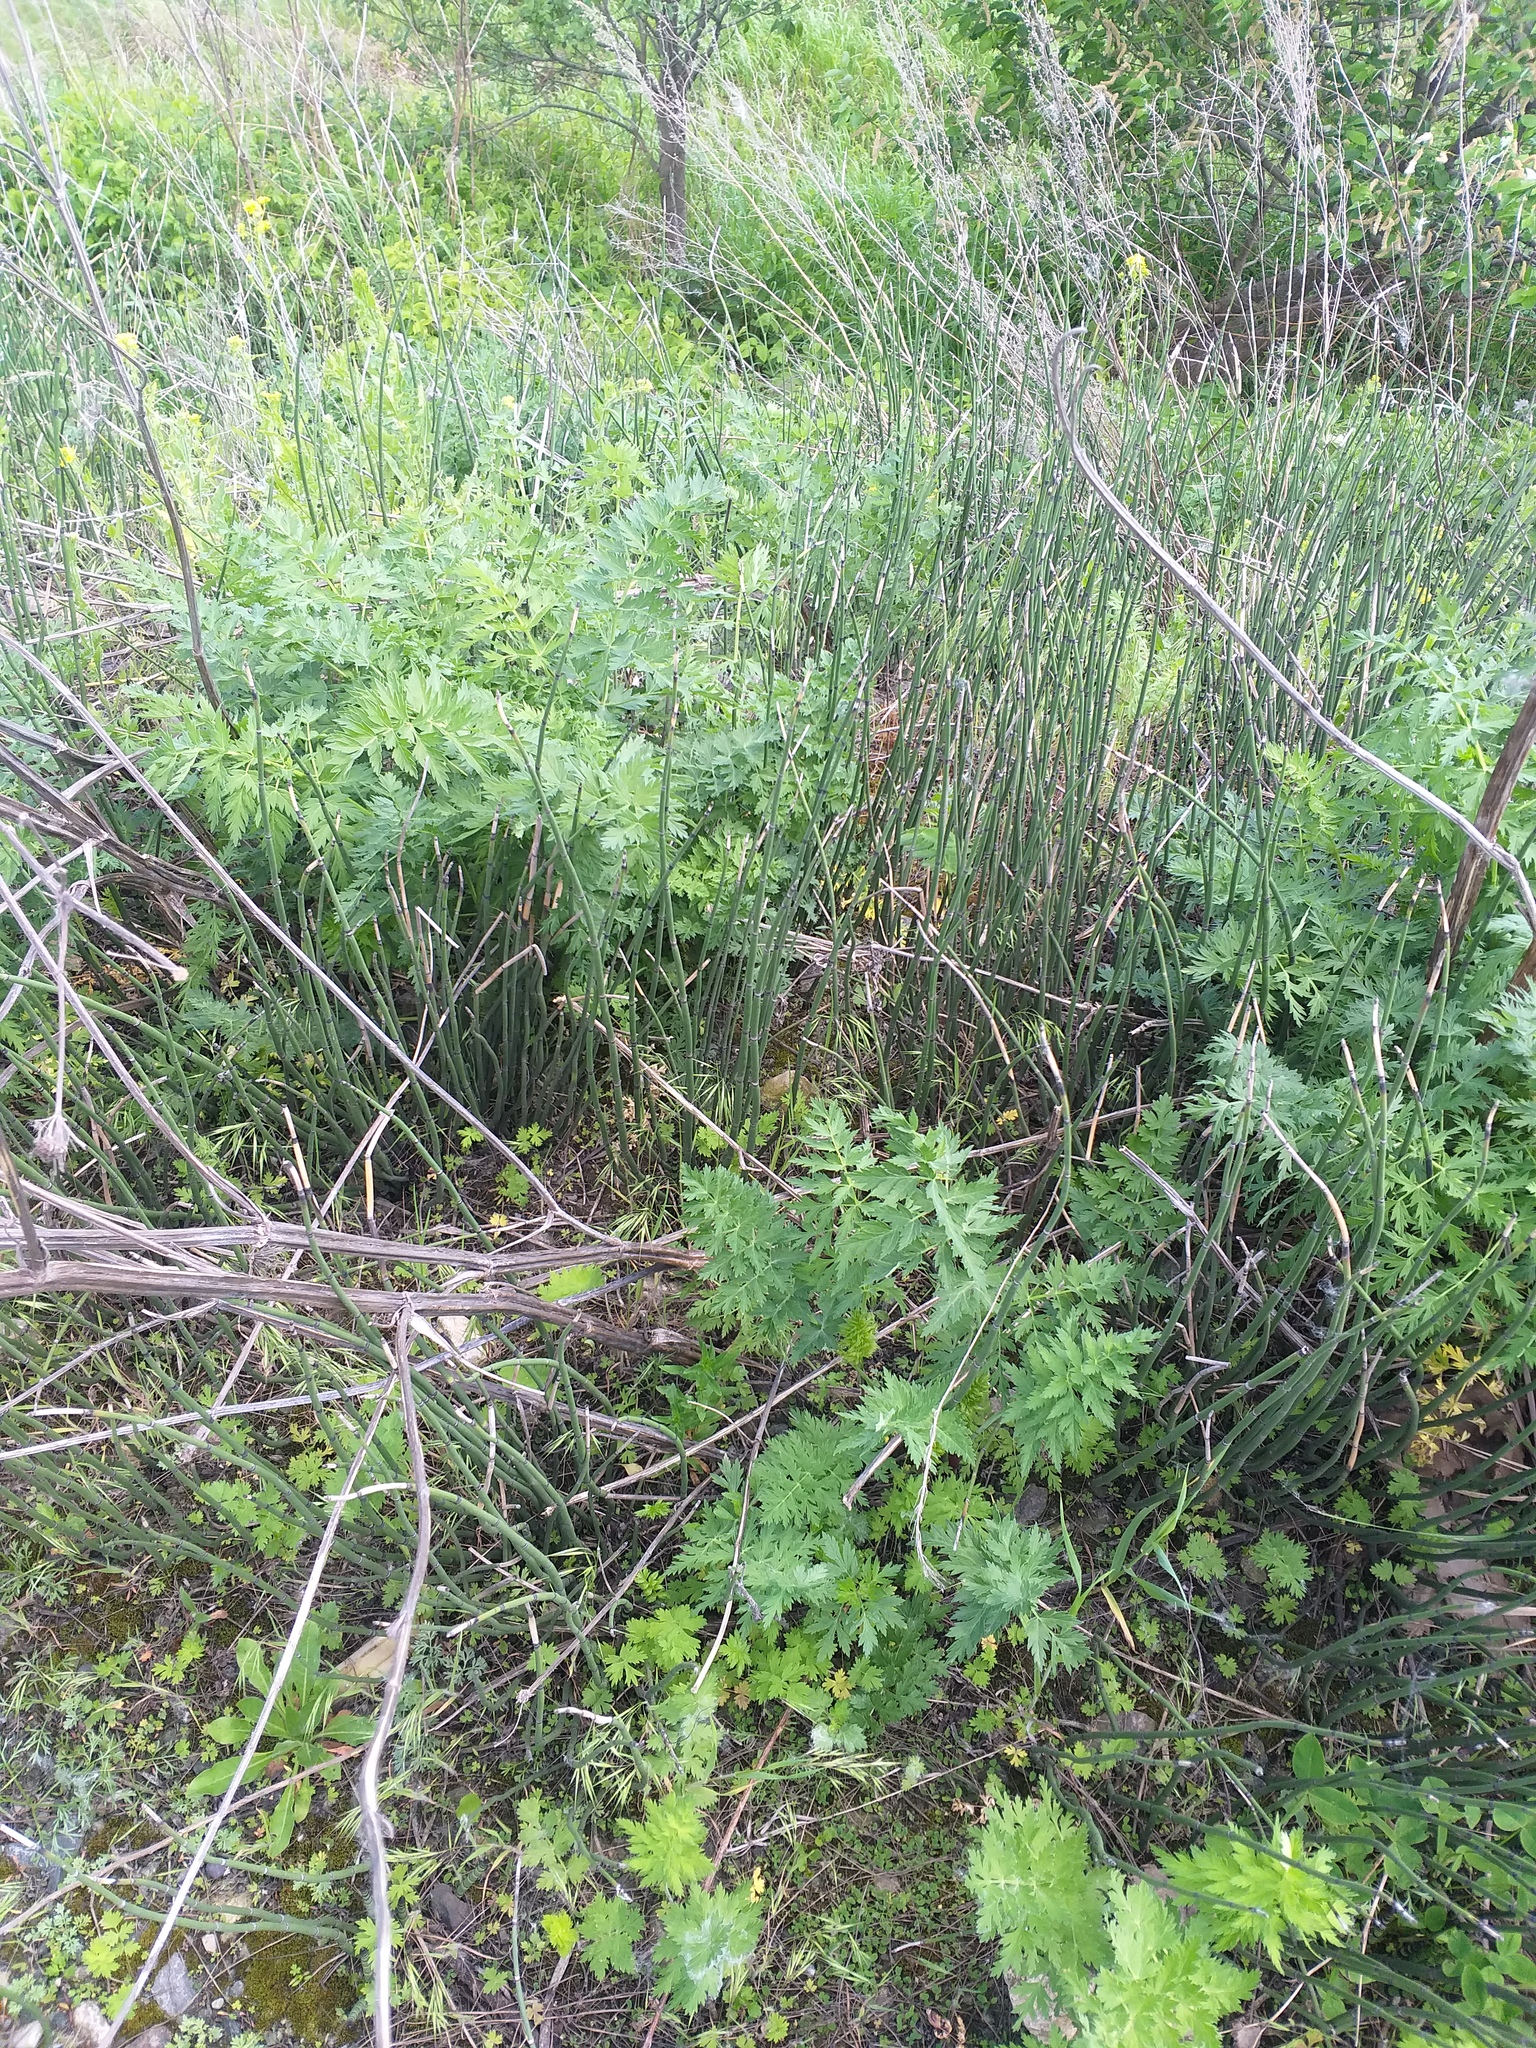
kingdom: Plantae
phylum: Tracheophyta
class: Polypodiopsida
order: Equisetales
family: Equisetaceae
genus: Equisetum
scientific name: Equisetum hyemale
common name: Rough horsetail
